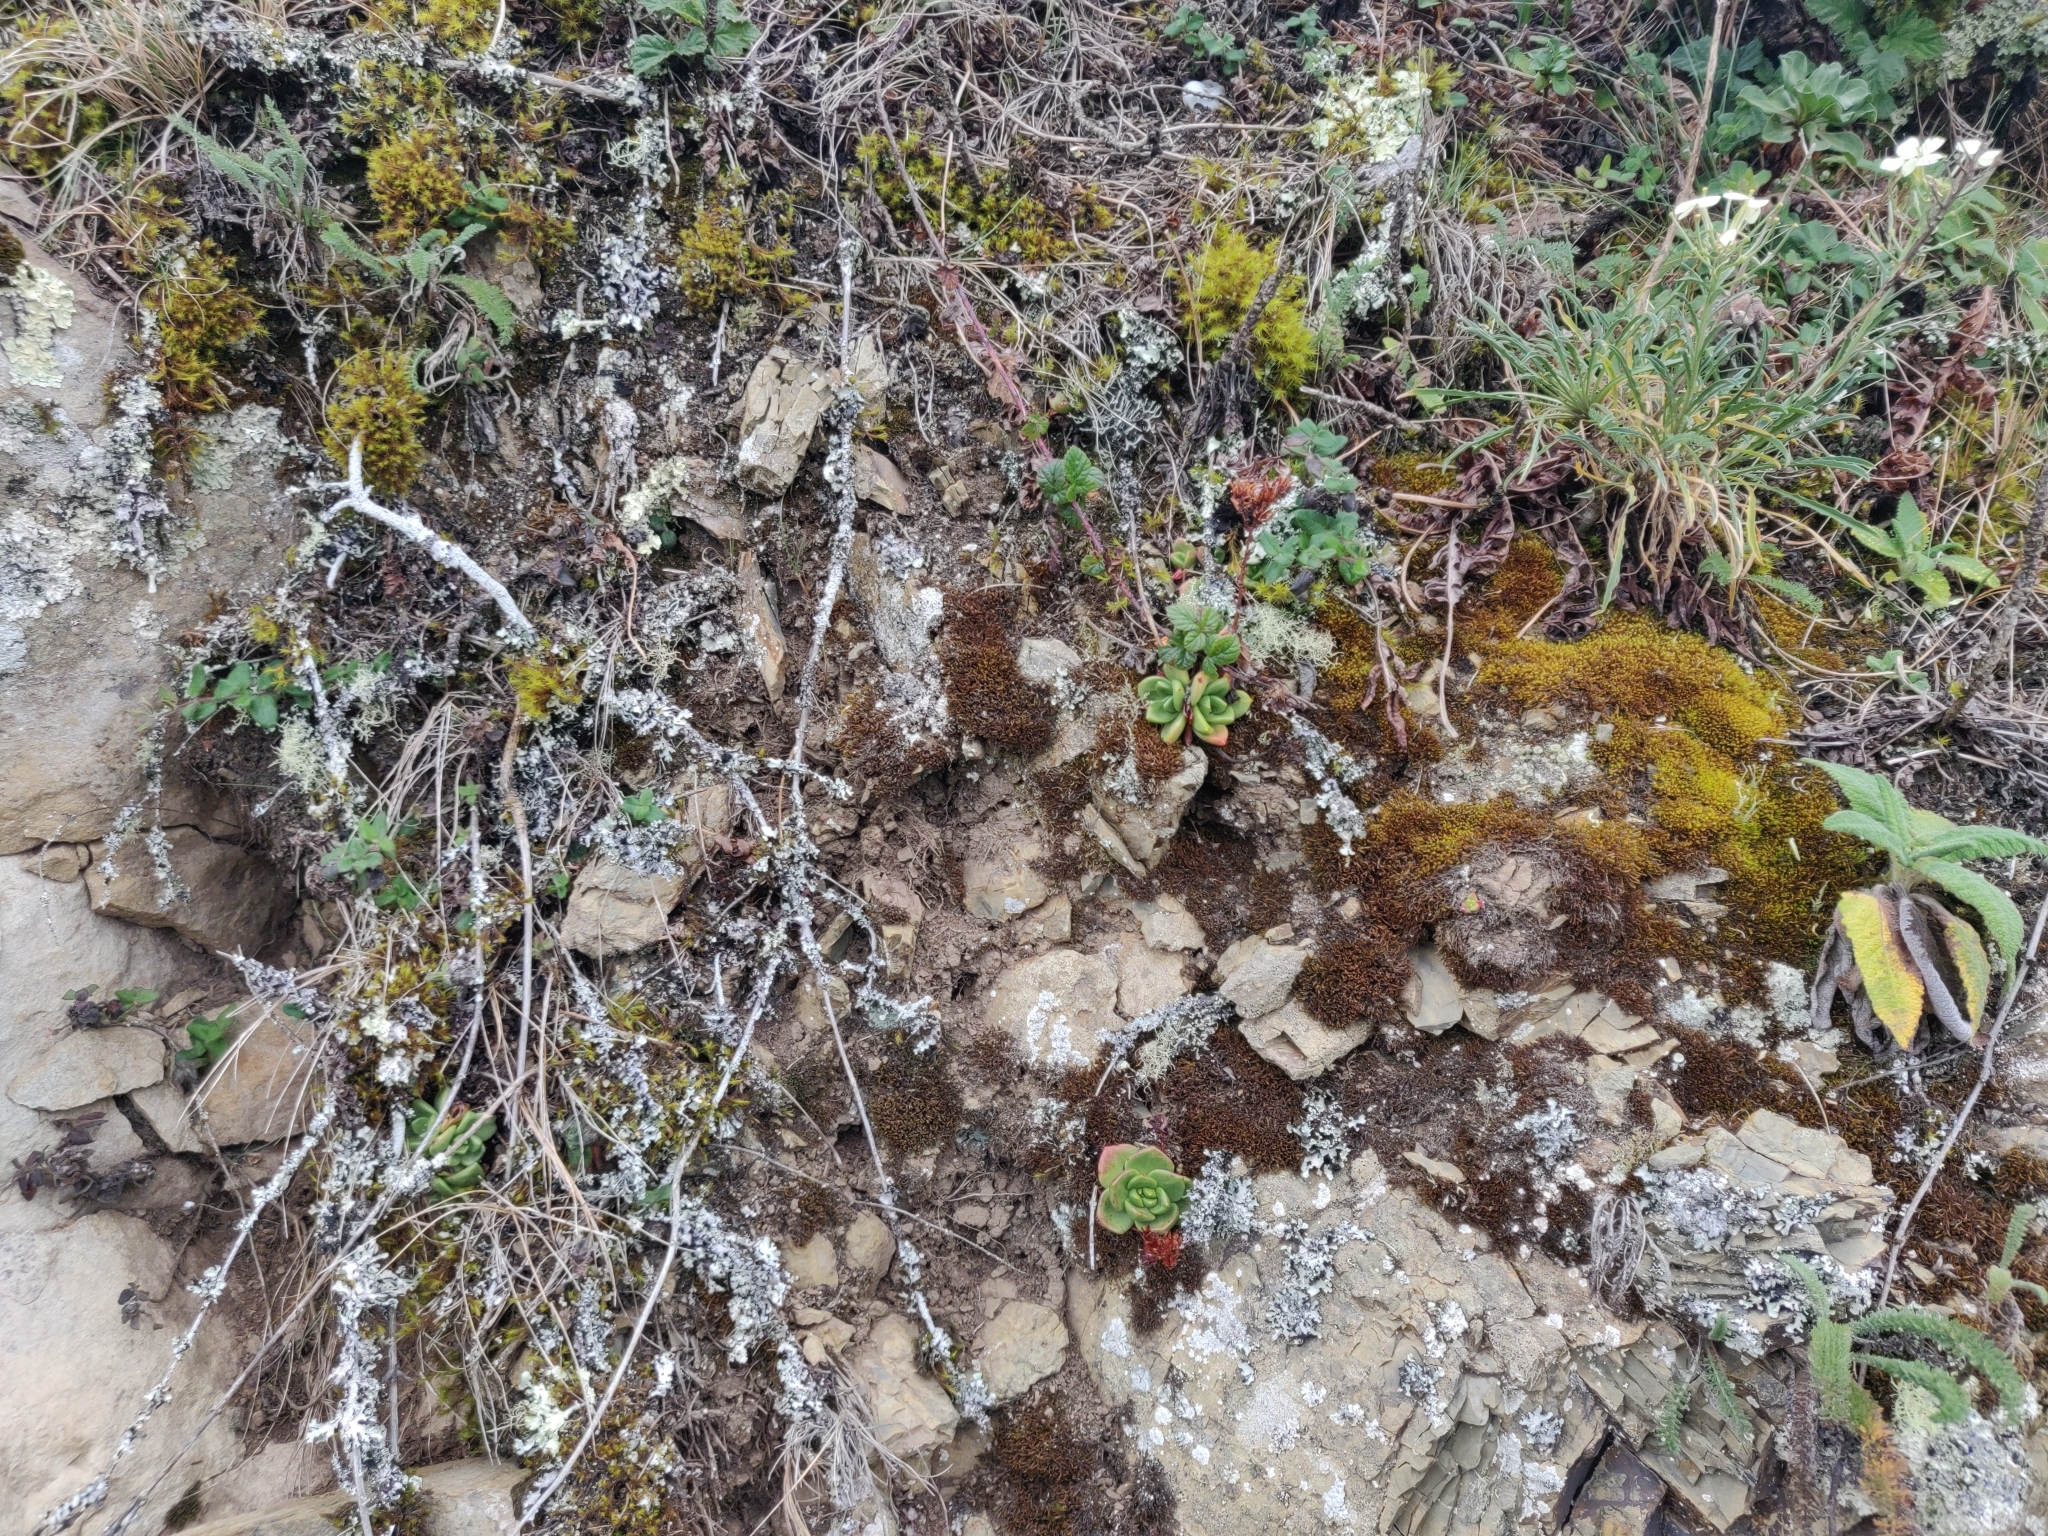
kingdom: Plantae
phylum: Tracheophyta
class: Magnoliopsida
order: Saxifragales
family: Crassulaceae
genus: Dudleya
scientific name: Dudleya farinosa
